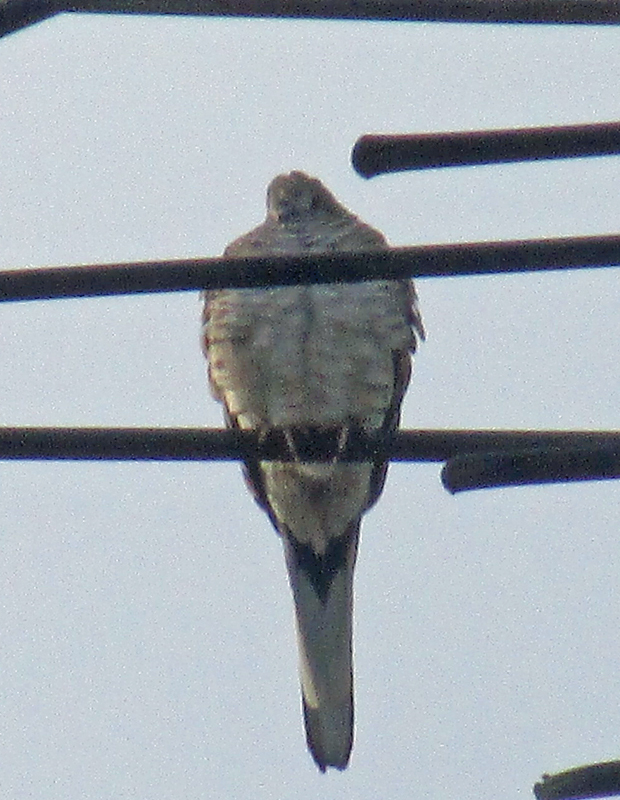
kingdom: Animalia
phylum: Chordata
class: Aves
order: Columbiformes
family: Columbidae
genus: Columbina
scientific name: Columbina inca
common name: Inca dove
